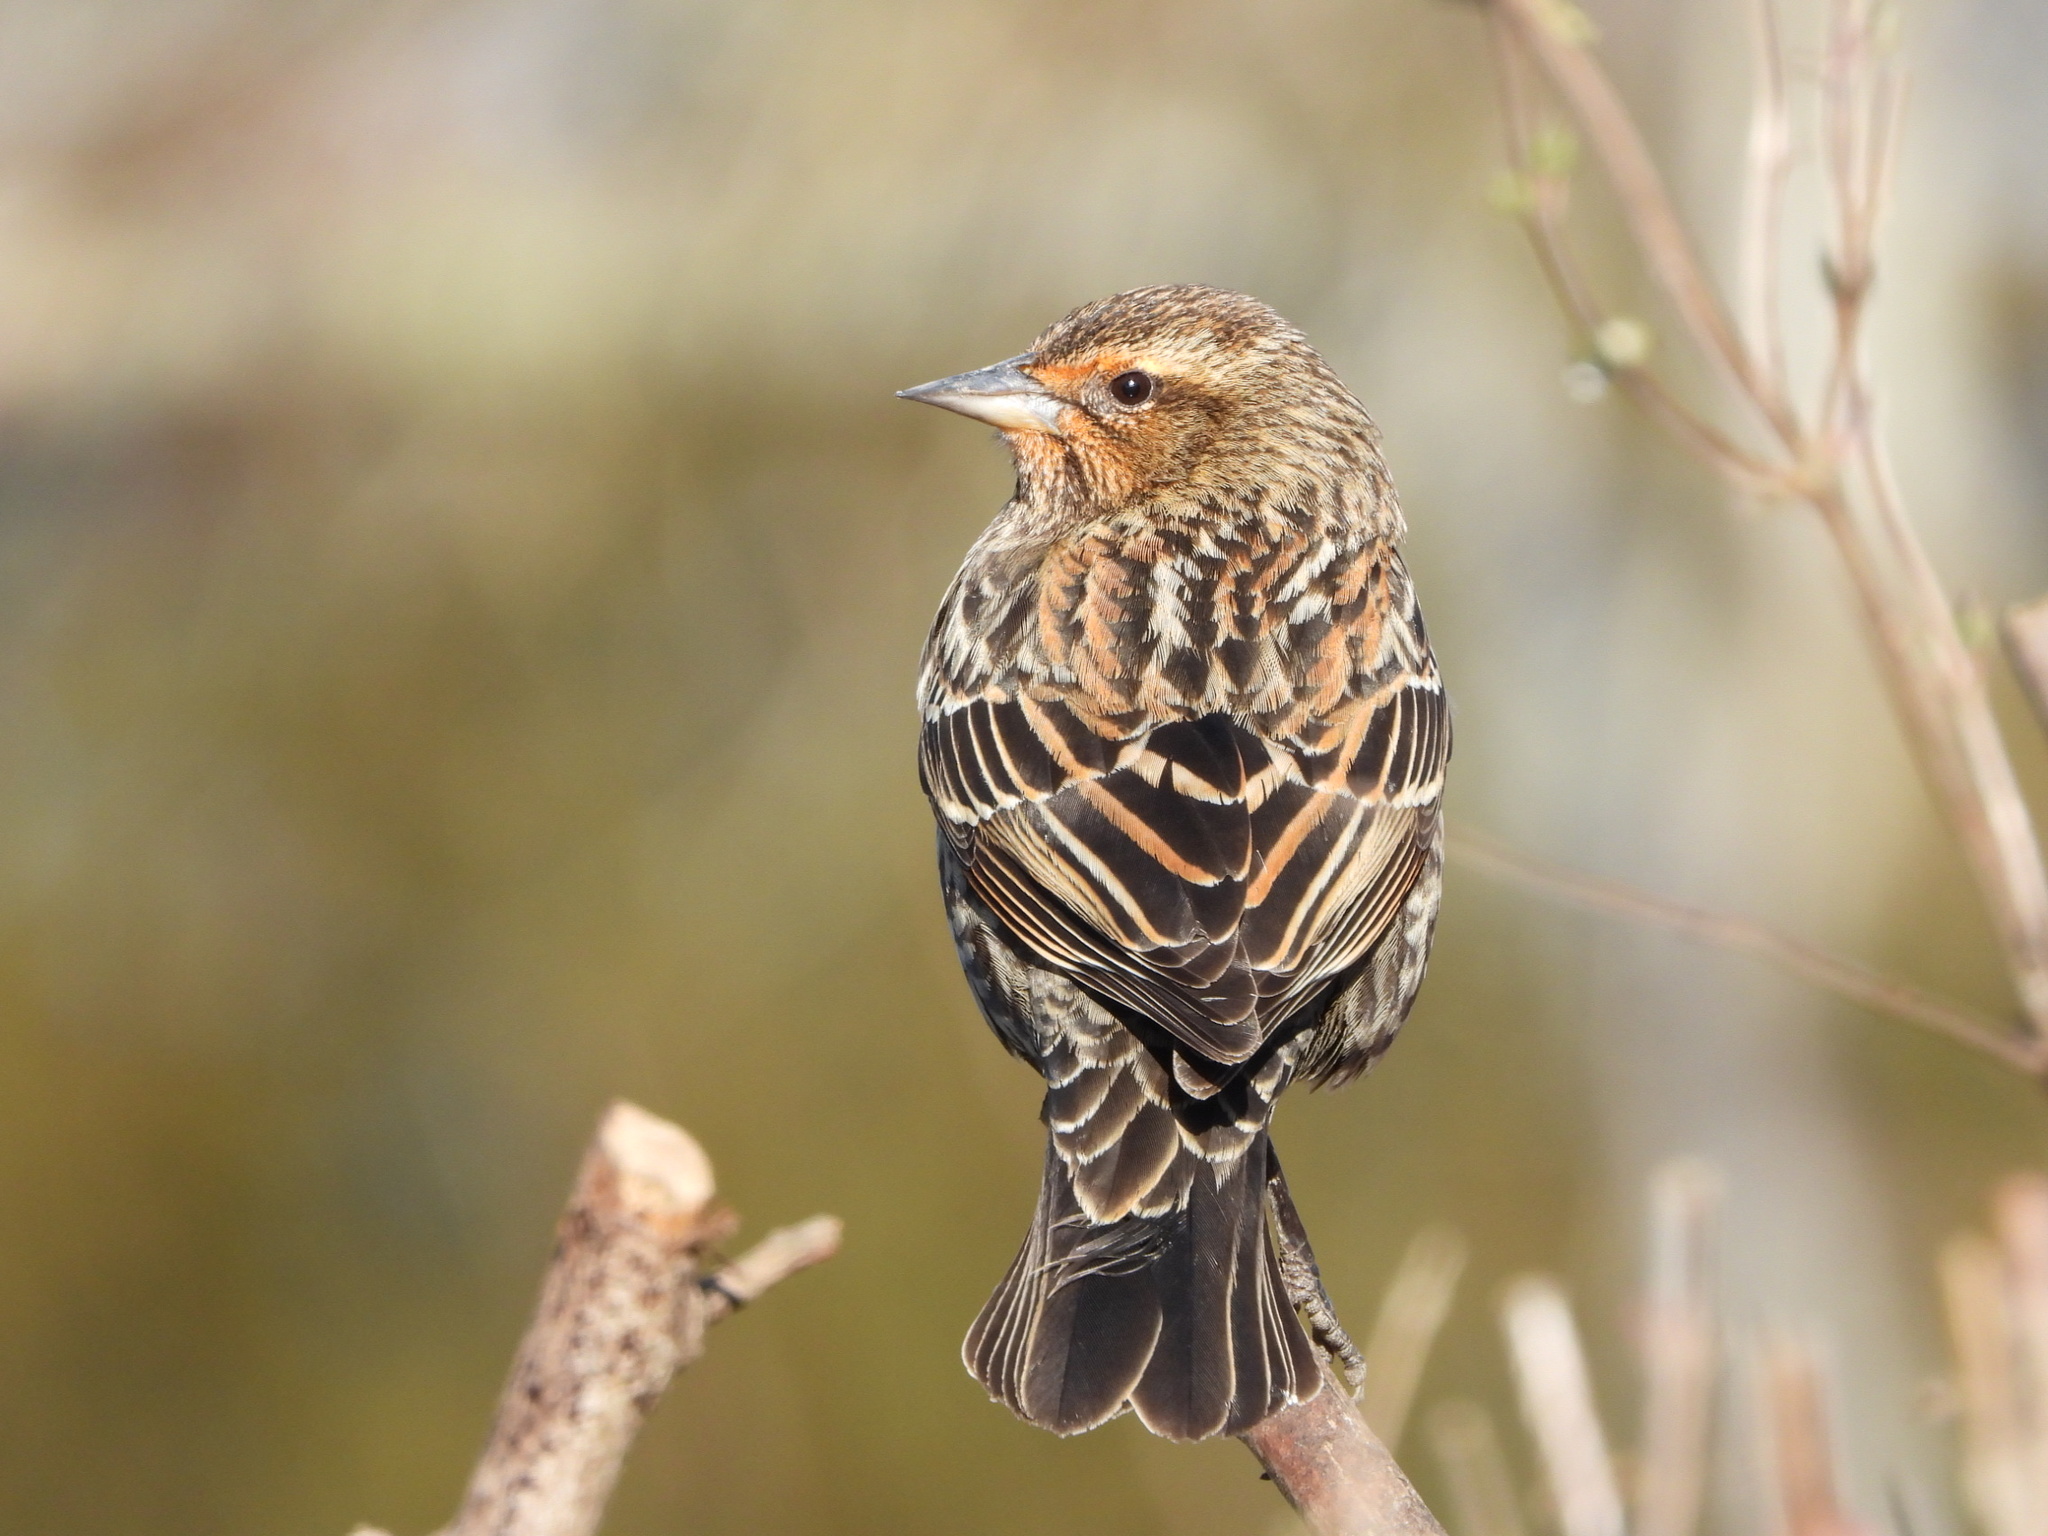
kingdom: Animalia
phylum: Chordata
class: Aves
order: Passeriformes
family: Icteridae
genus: Agelaius
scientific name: Agelaius phoeniceus
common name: Red-winged blackbird
